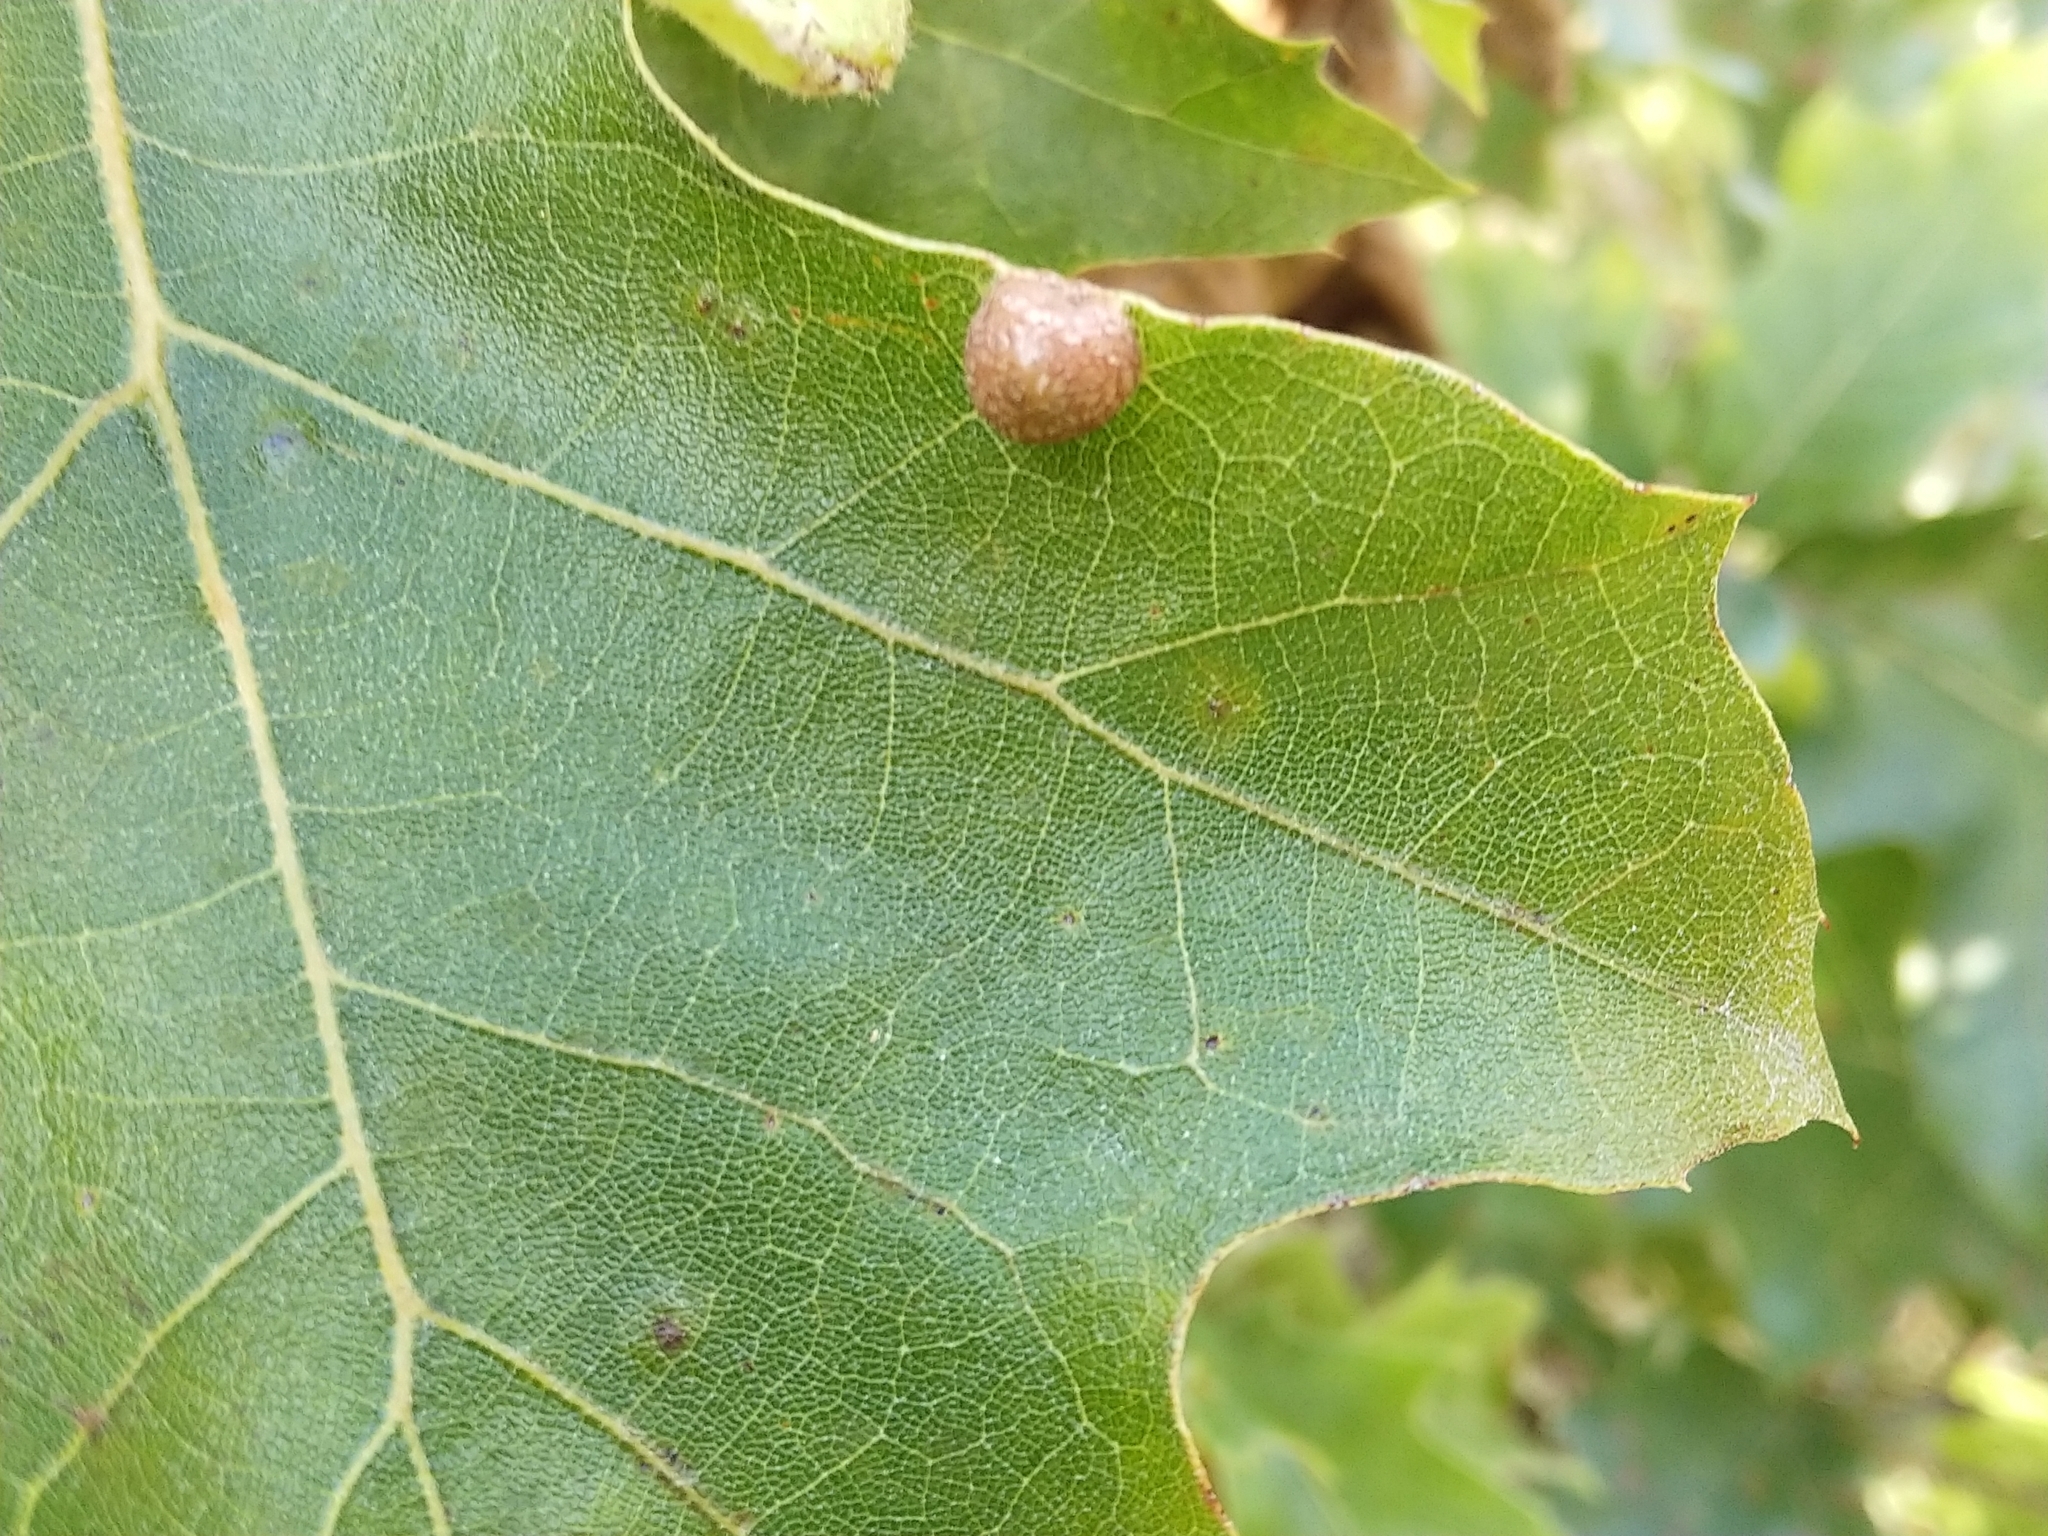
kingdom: Animalia
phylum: Arthropoda
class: Insecta
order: Diptera
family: Cecidomyiidae
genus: Polystepha
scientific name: Polystepha pilulae
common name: Oak leaf gall midge
